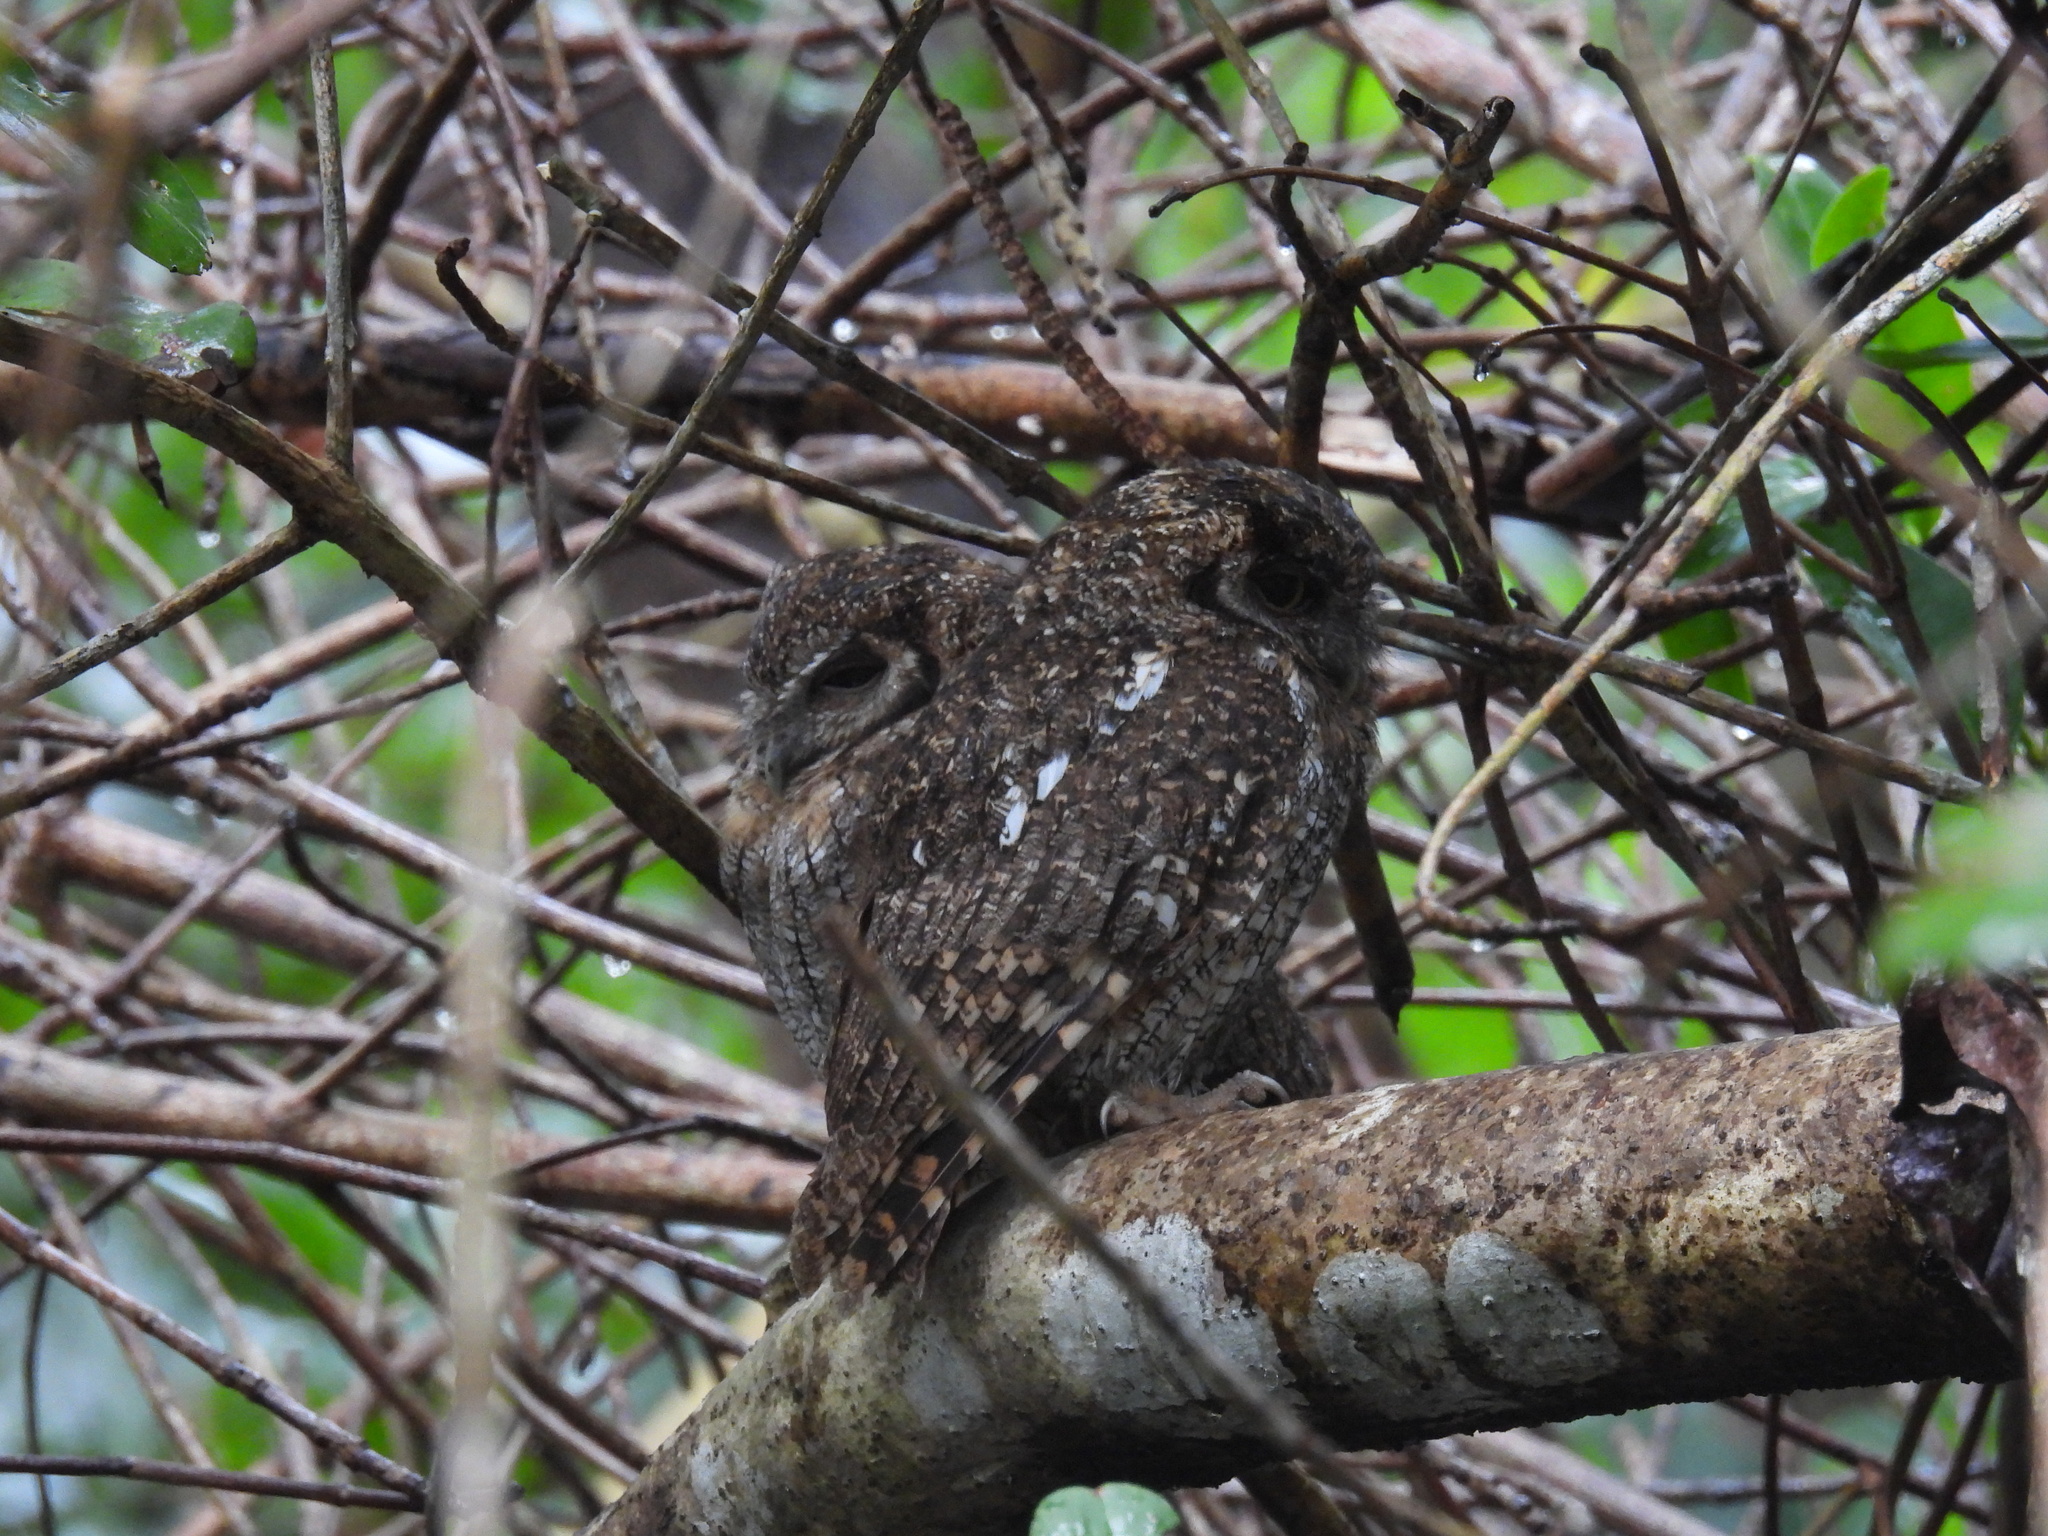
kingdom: Animalia
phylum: Chordata
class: Aves
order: Strigiformes
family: Strigidae
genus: Megascops
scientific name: Megascops choliba
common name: Tropical screech-owl
